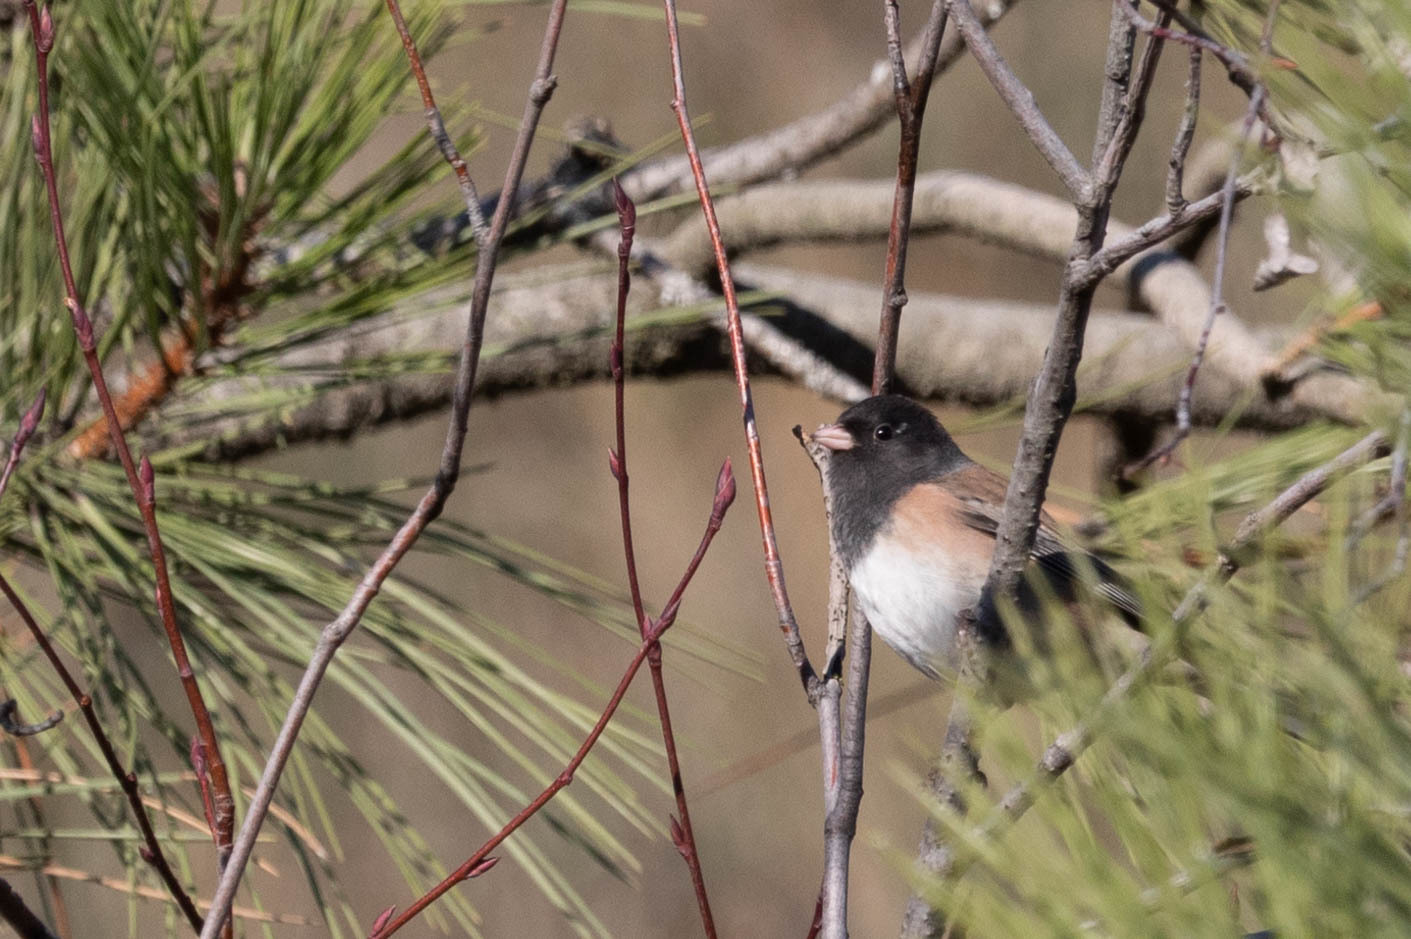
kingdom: Animalia
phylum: Chordata
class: Aves
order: Passeriformes
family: Passerellidae
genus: Junco
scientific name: Junco hyemalis
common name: Dark-eyed junco
